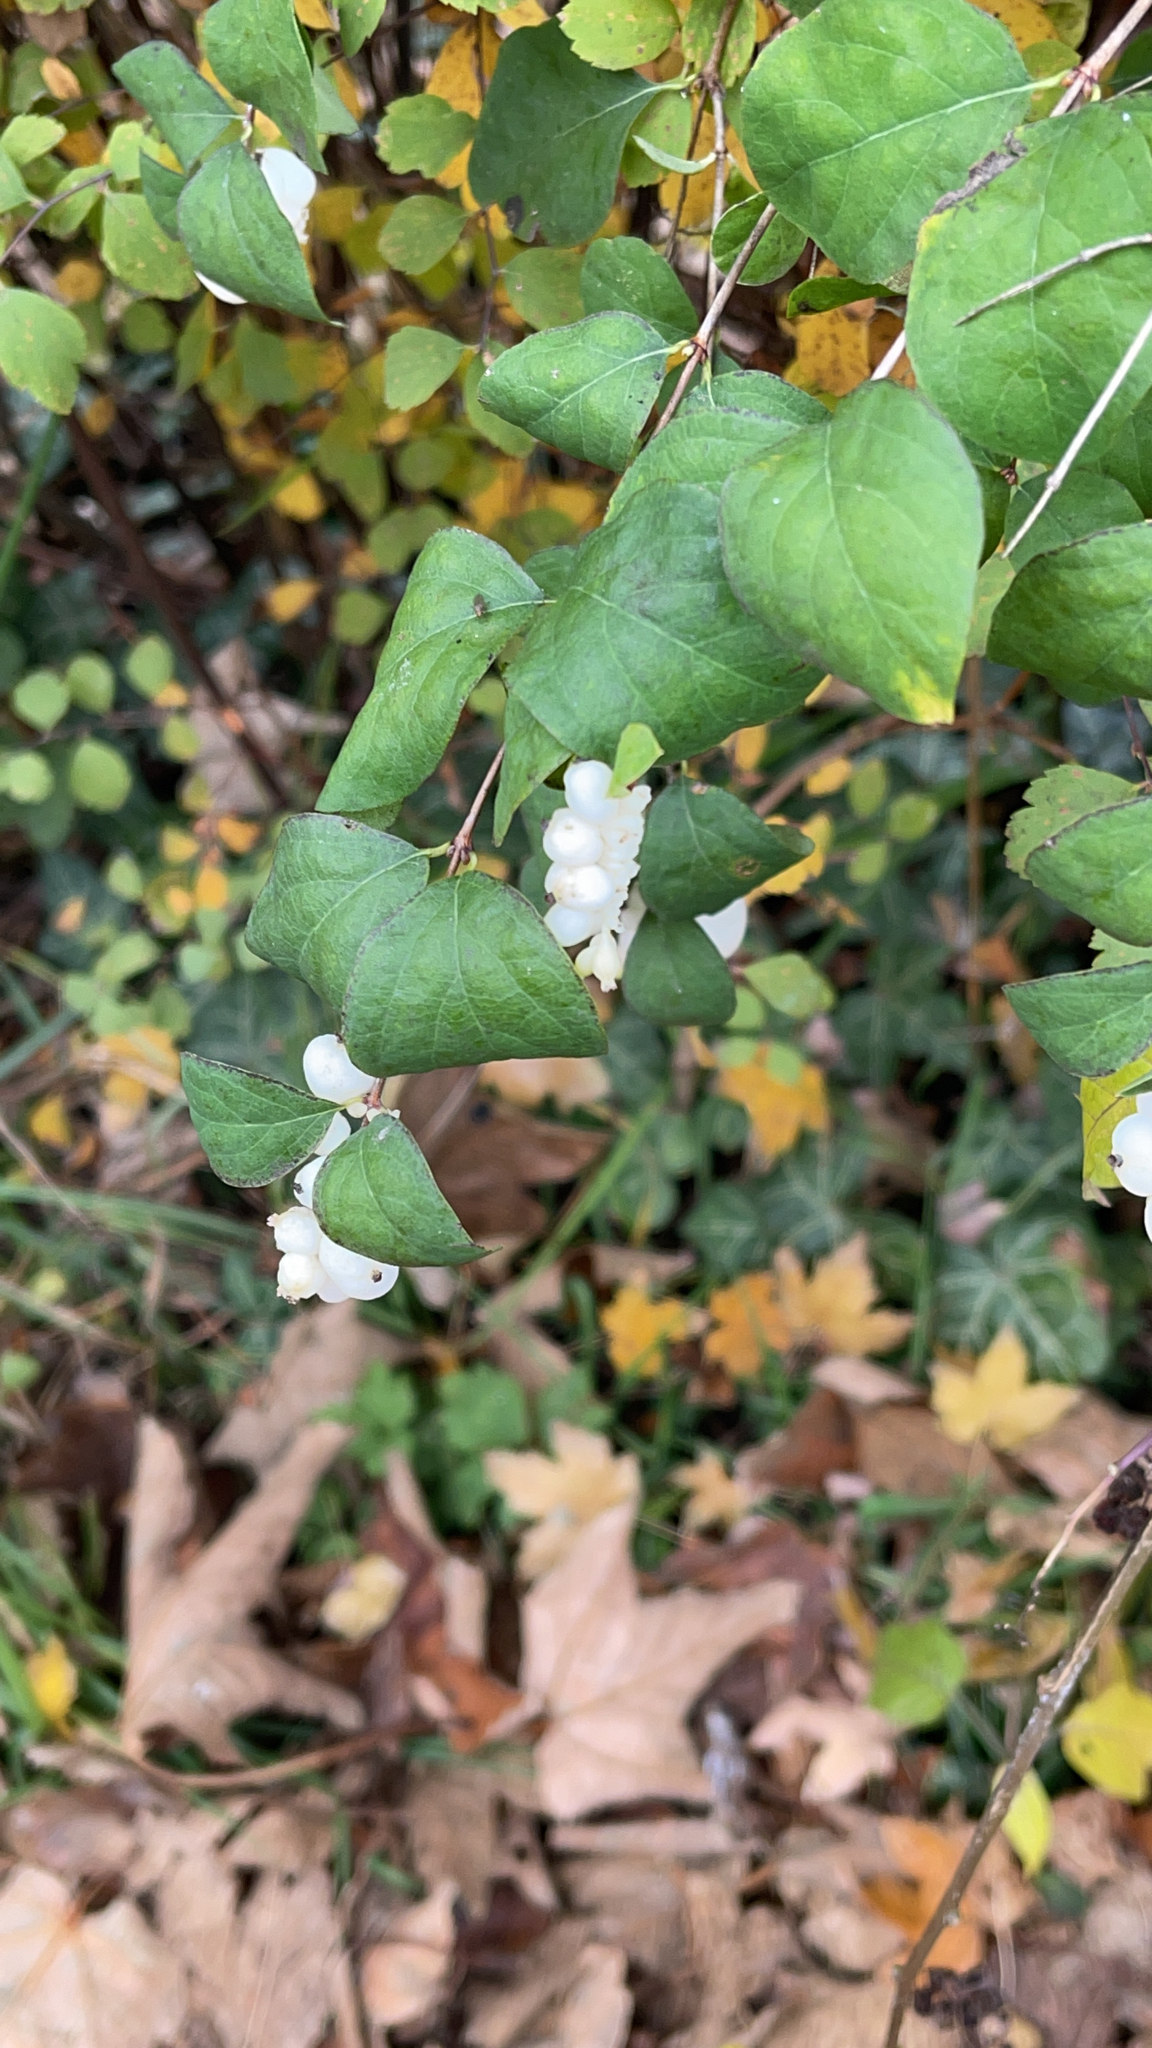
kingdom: Plantae
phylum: Tracheophyta
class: Magnoliopsida
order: Dipsacales
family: Caprifoliaceae
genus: Symphoricarpos
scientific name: Symphoricarpos albus
